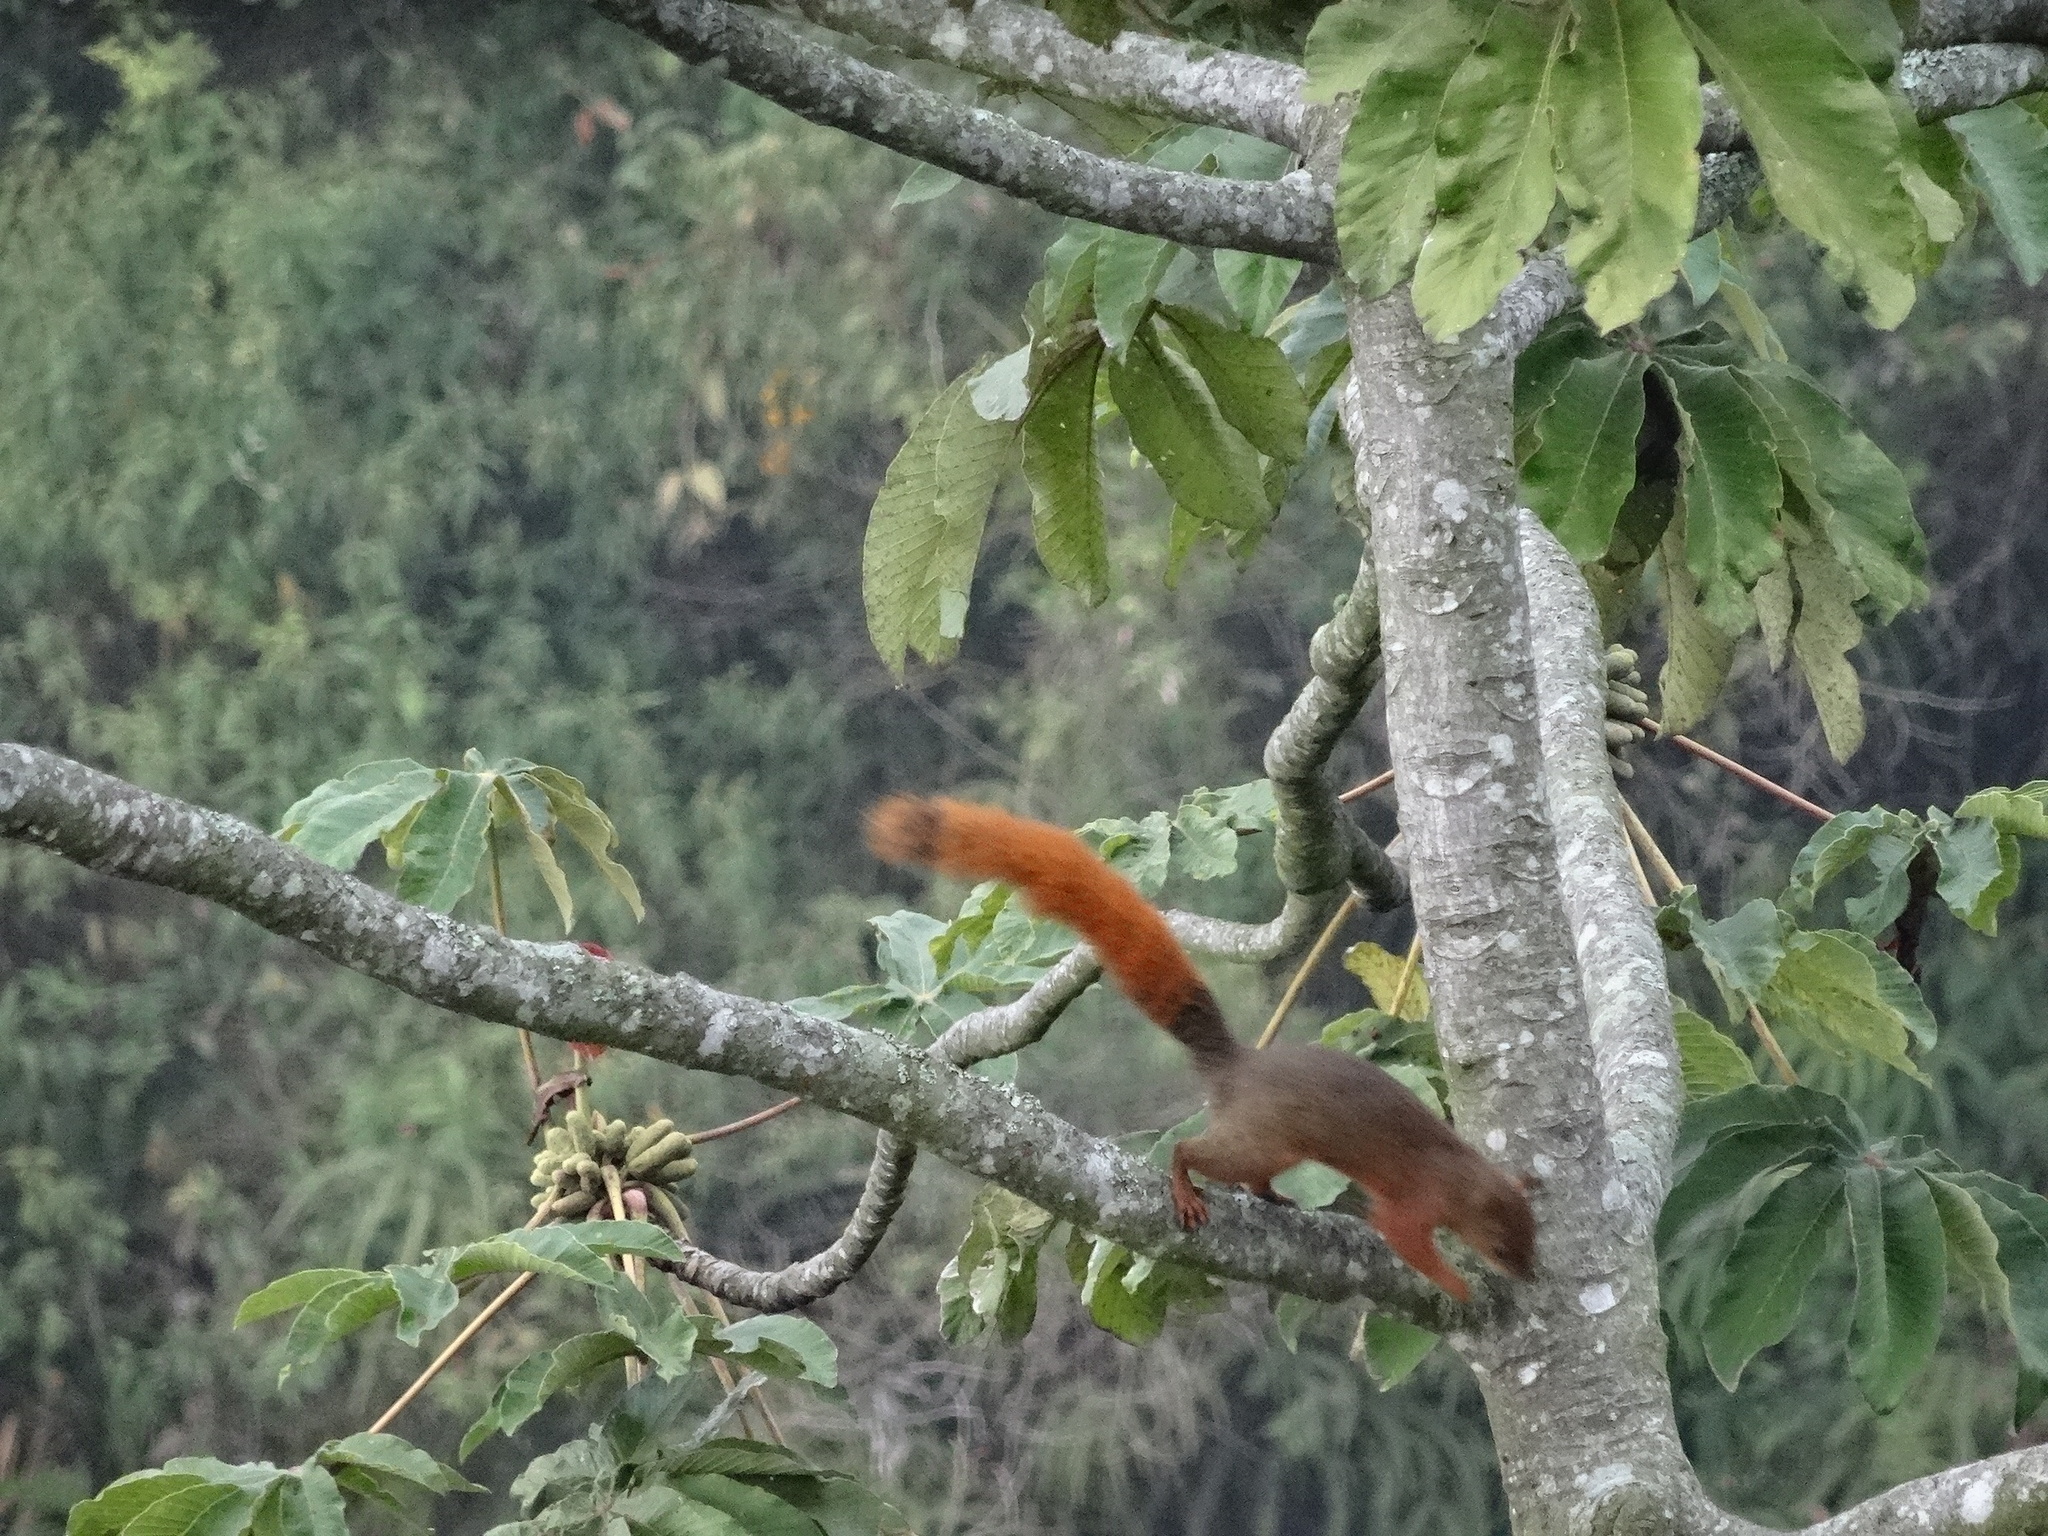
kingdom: Animalia
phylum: Chordata
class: Mammalia
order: Rodentia
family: Sciuridae
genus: Sciurus
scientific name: Sciurus granatensis
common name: Red-tailed squirrel
